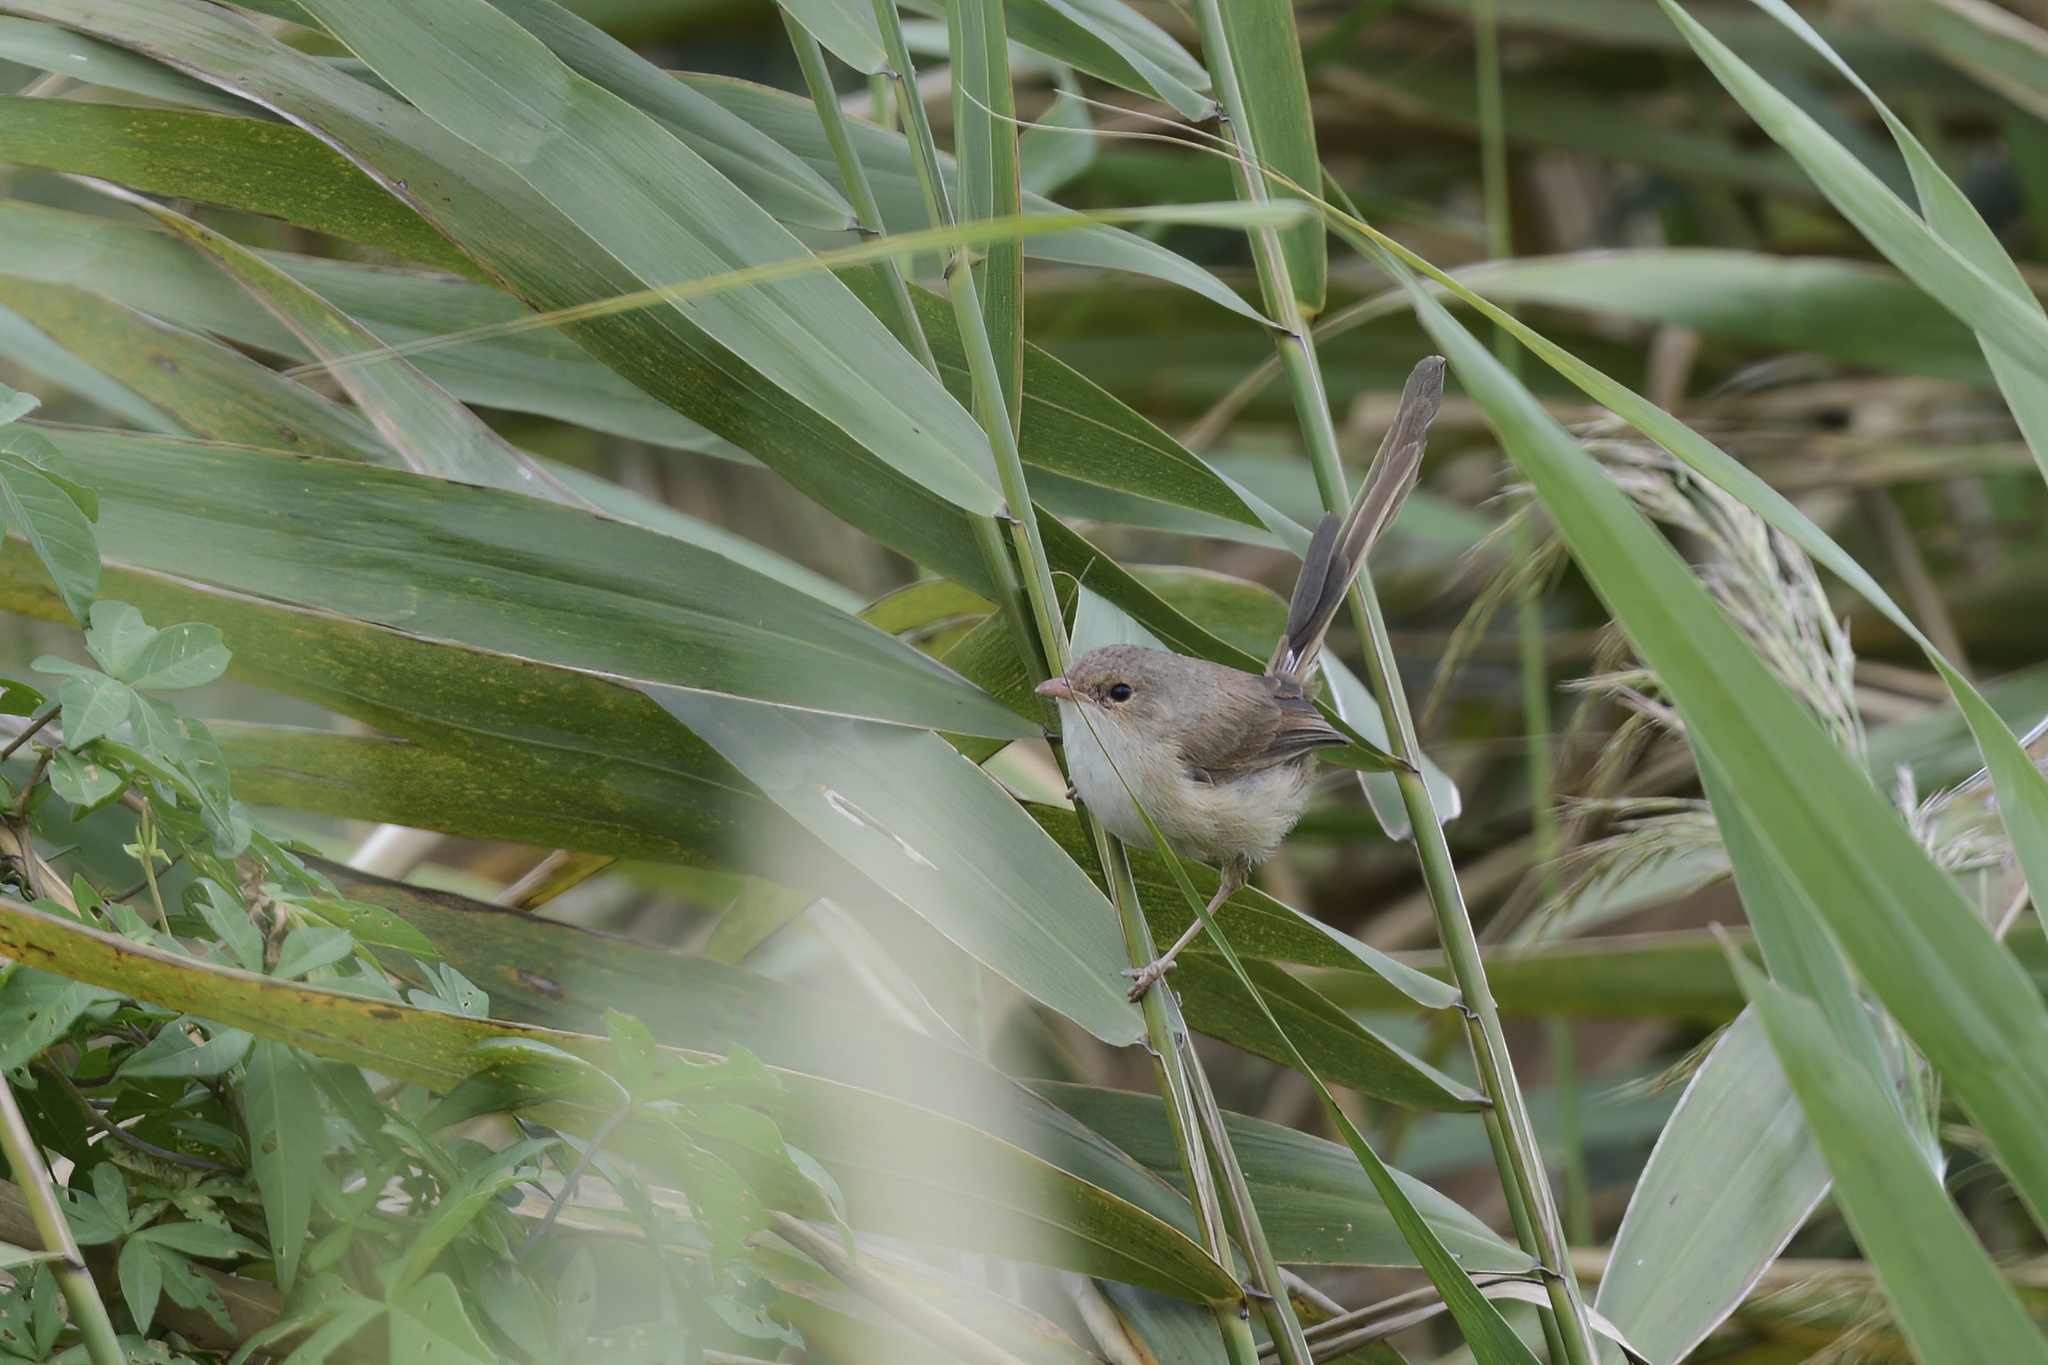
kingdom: Animalia
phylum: Chordata
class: Aves
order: Passeriformes
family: Maluridae
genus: Malurus
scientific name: Malurus melanocephalus
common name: Red-backed fairywren
